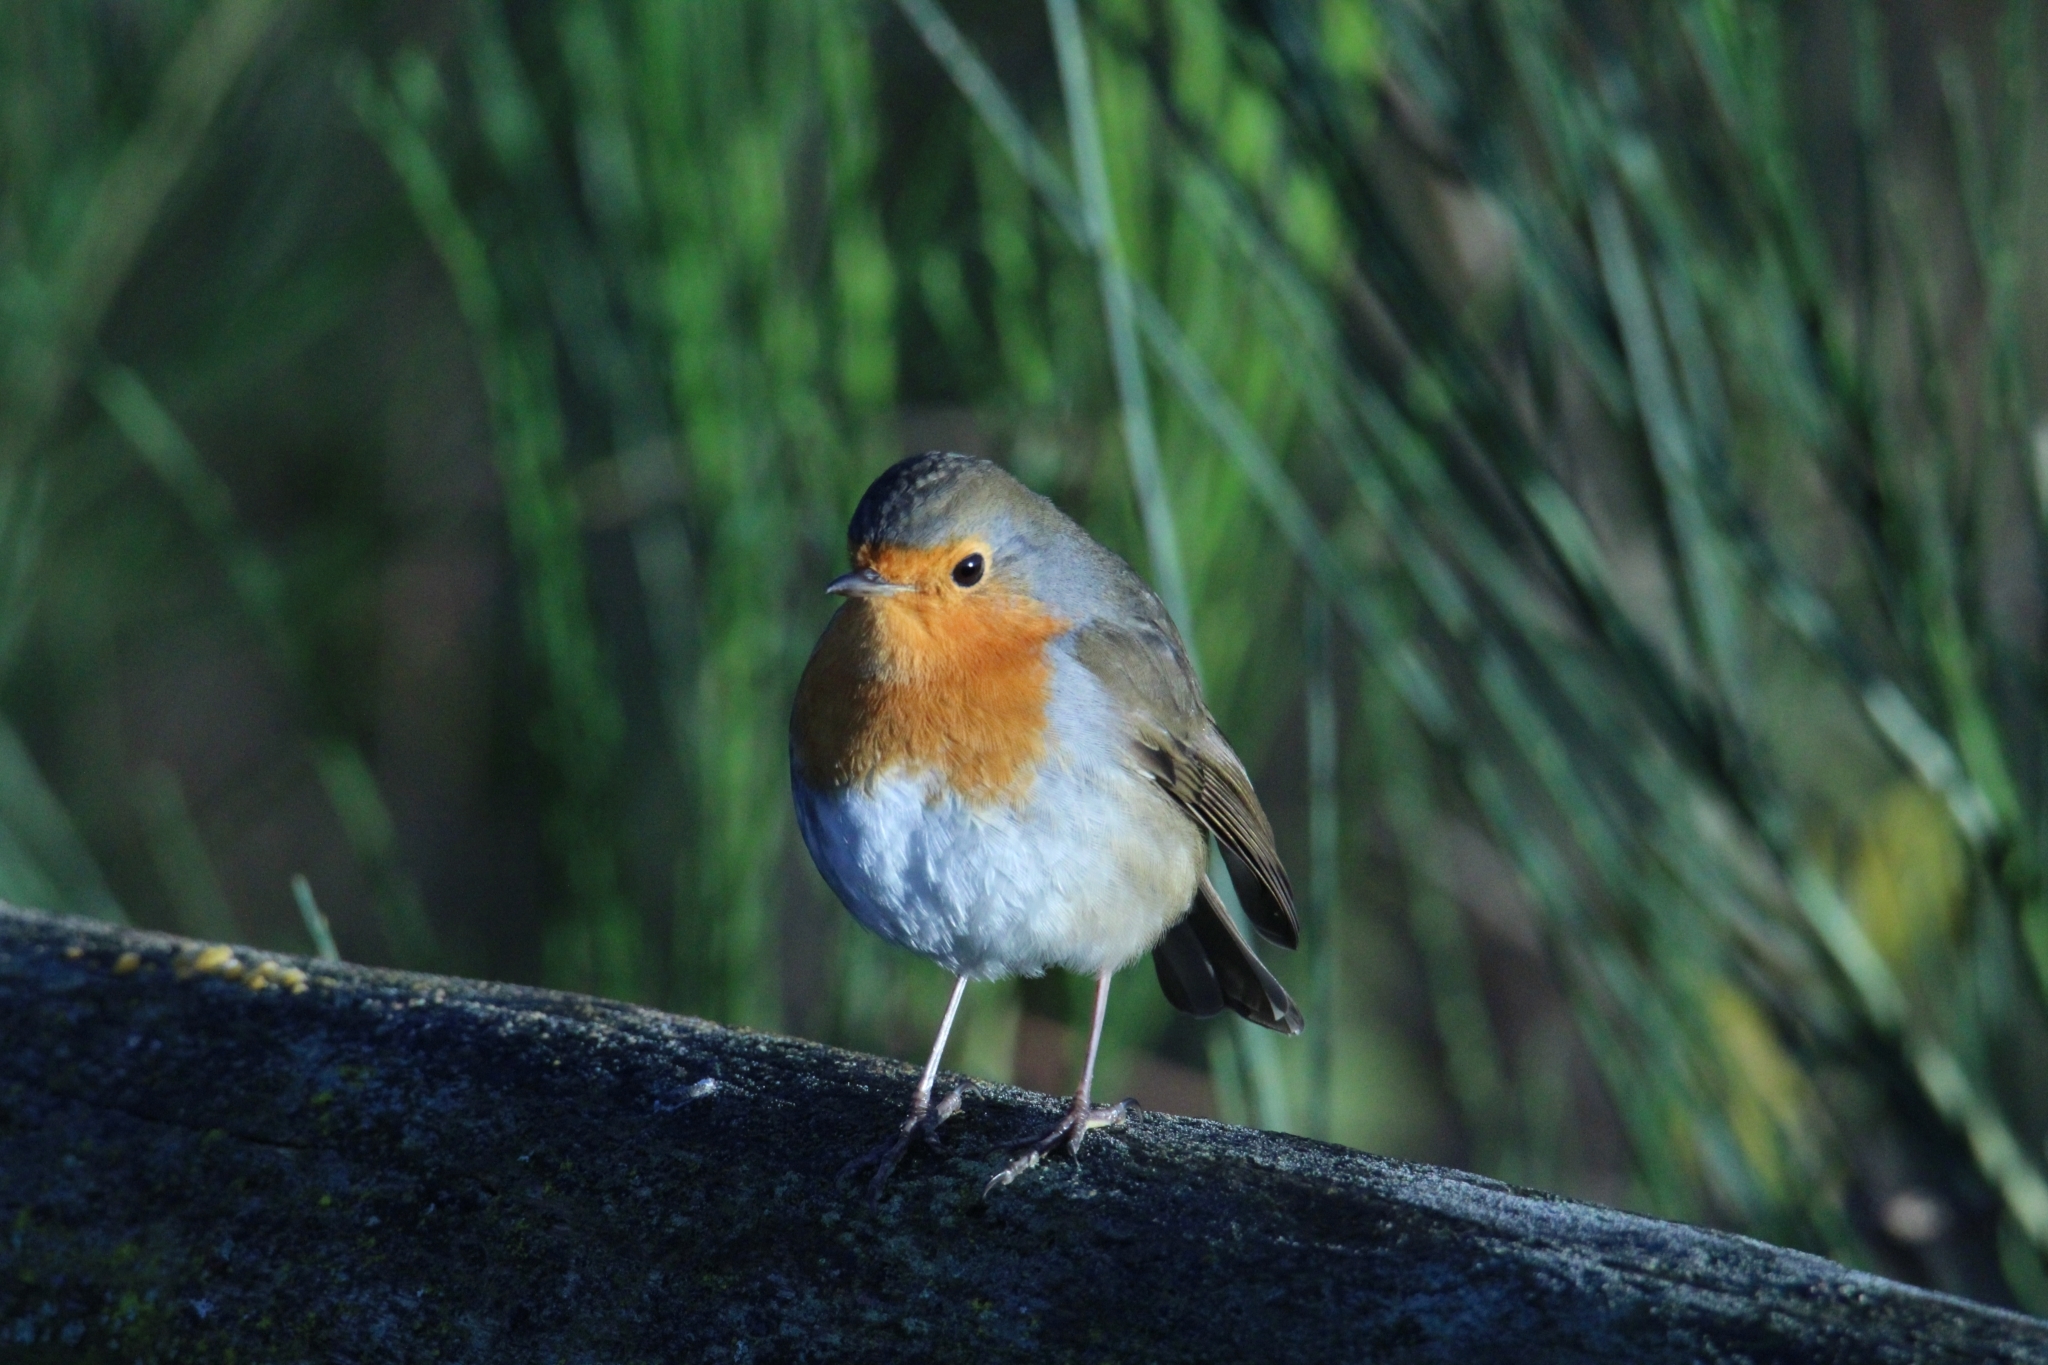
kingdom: Animalia
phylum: Chordata
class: Aves
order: Passeriformes
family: Muscicapidae
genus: Erithacus
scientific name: Erithacus rubecula
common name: European robin
